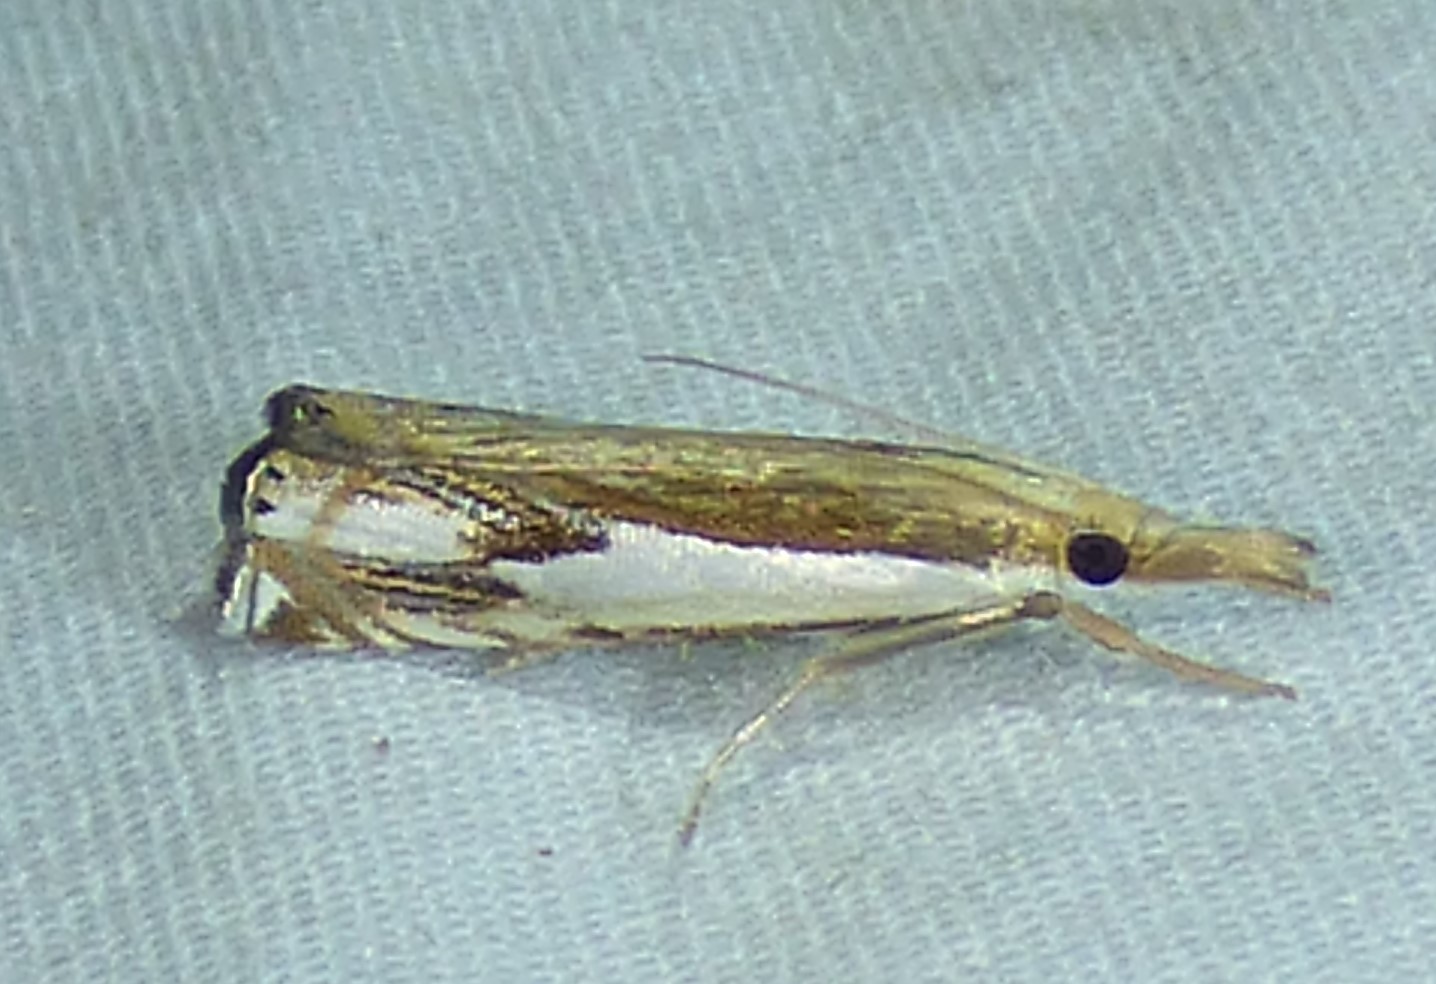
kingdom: Animalia
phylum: Arthropoda
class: Insecta
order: Lepidoptera
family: Crambidae
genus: Crambus
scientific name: Crambus agitatellus
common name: Double-banded grass-veneer
